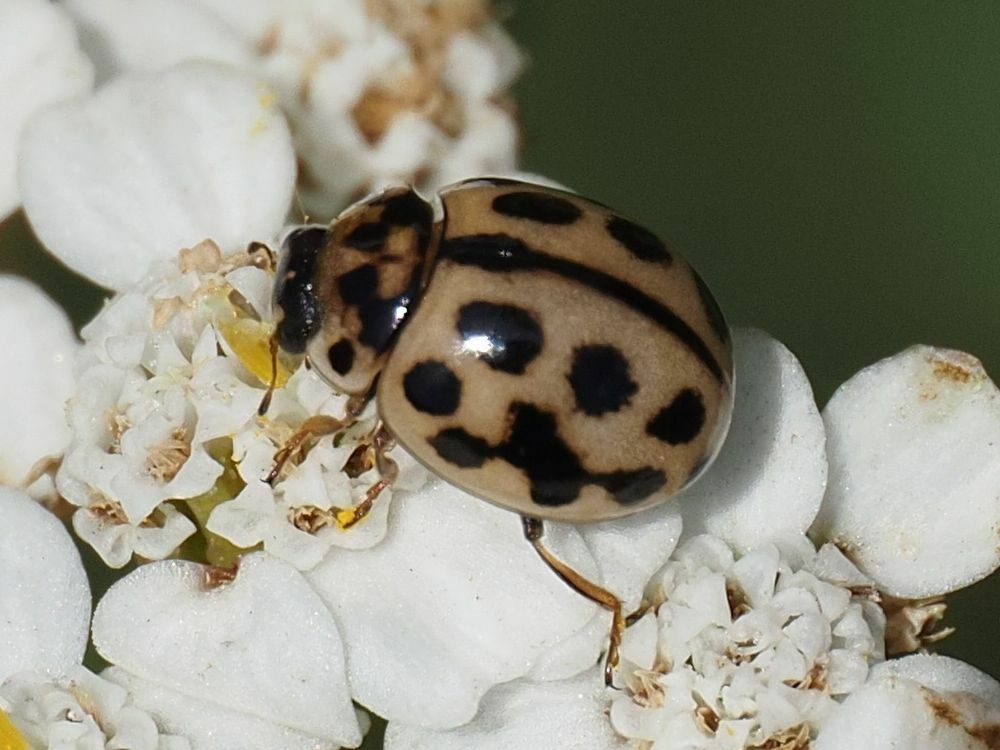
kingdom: Animalia
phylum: Arthropoda
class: Insecta
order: Coleoptera
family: Coccinellidae
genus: Tytthaspis
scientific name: Tytthaspis sedecimpunctata
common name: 16-spot ladybird
